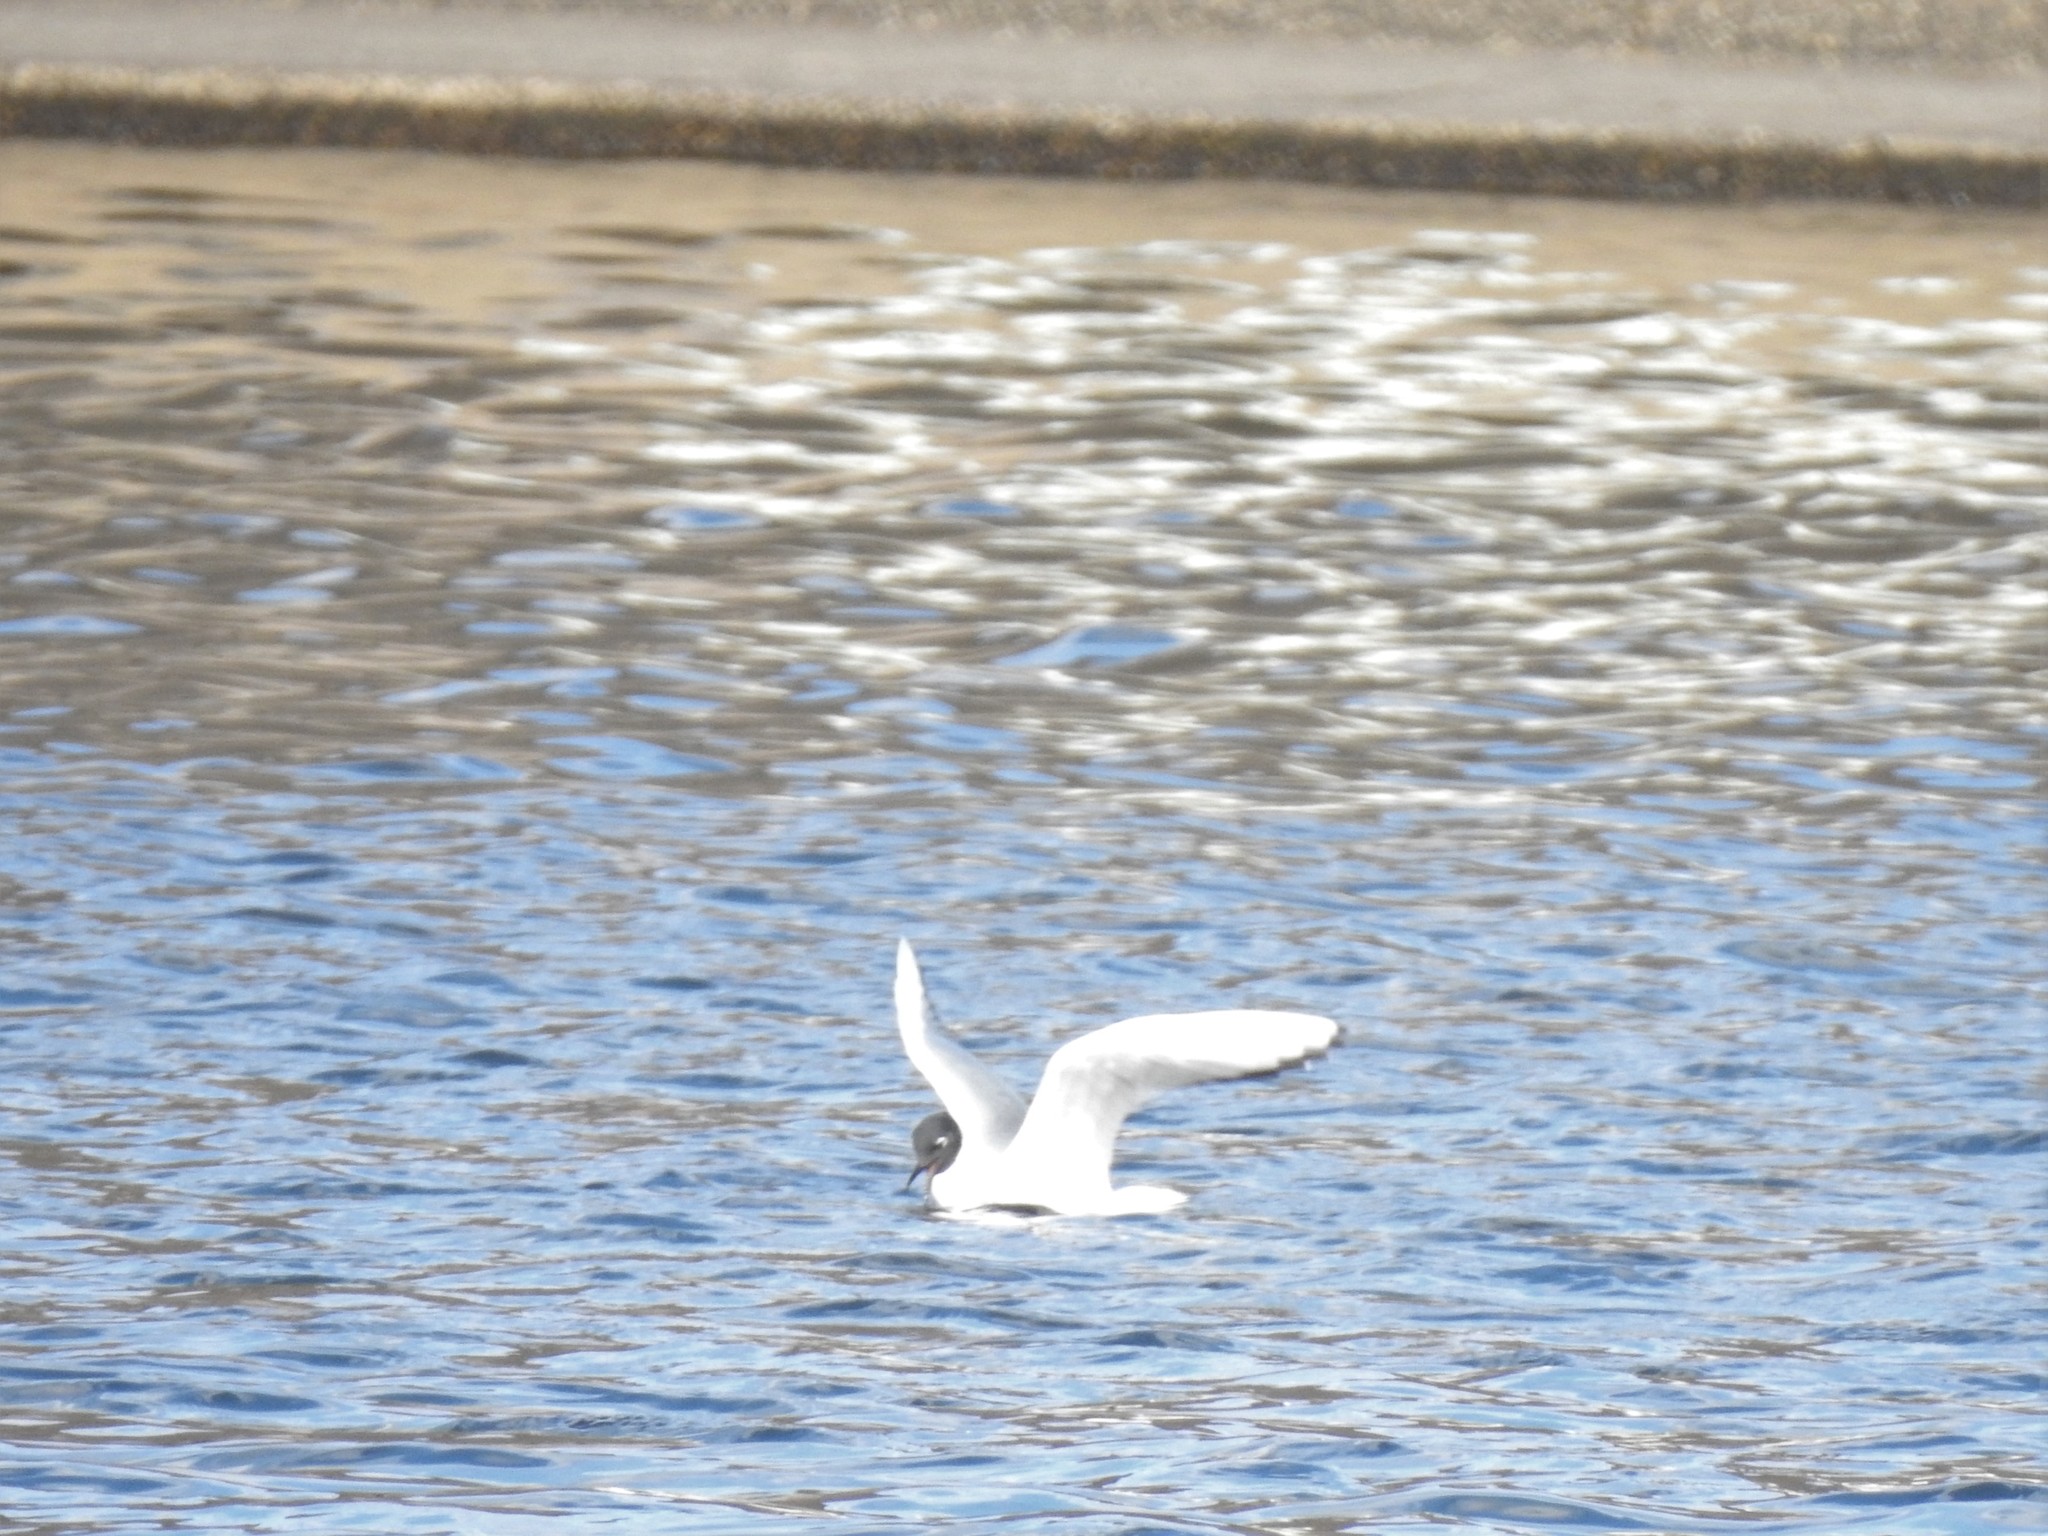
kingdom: Animalia
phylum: Chordata
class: Aves
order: Charadriiformes
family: Laridae
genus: Chroicocephalus
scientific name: Chroicocephalus philadelphia
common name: Bonaparte's gull
